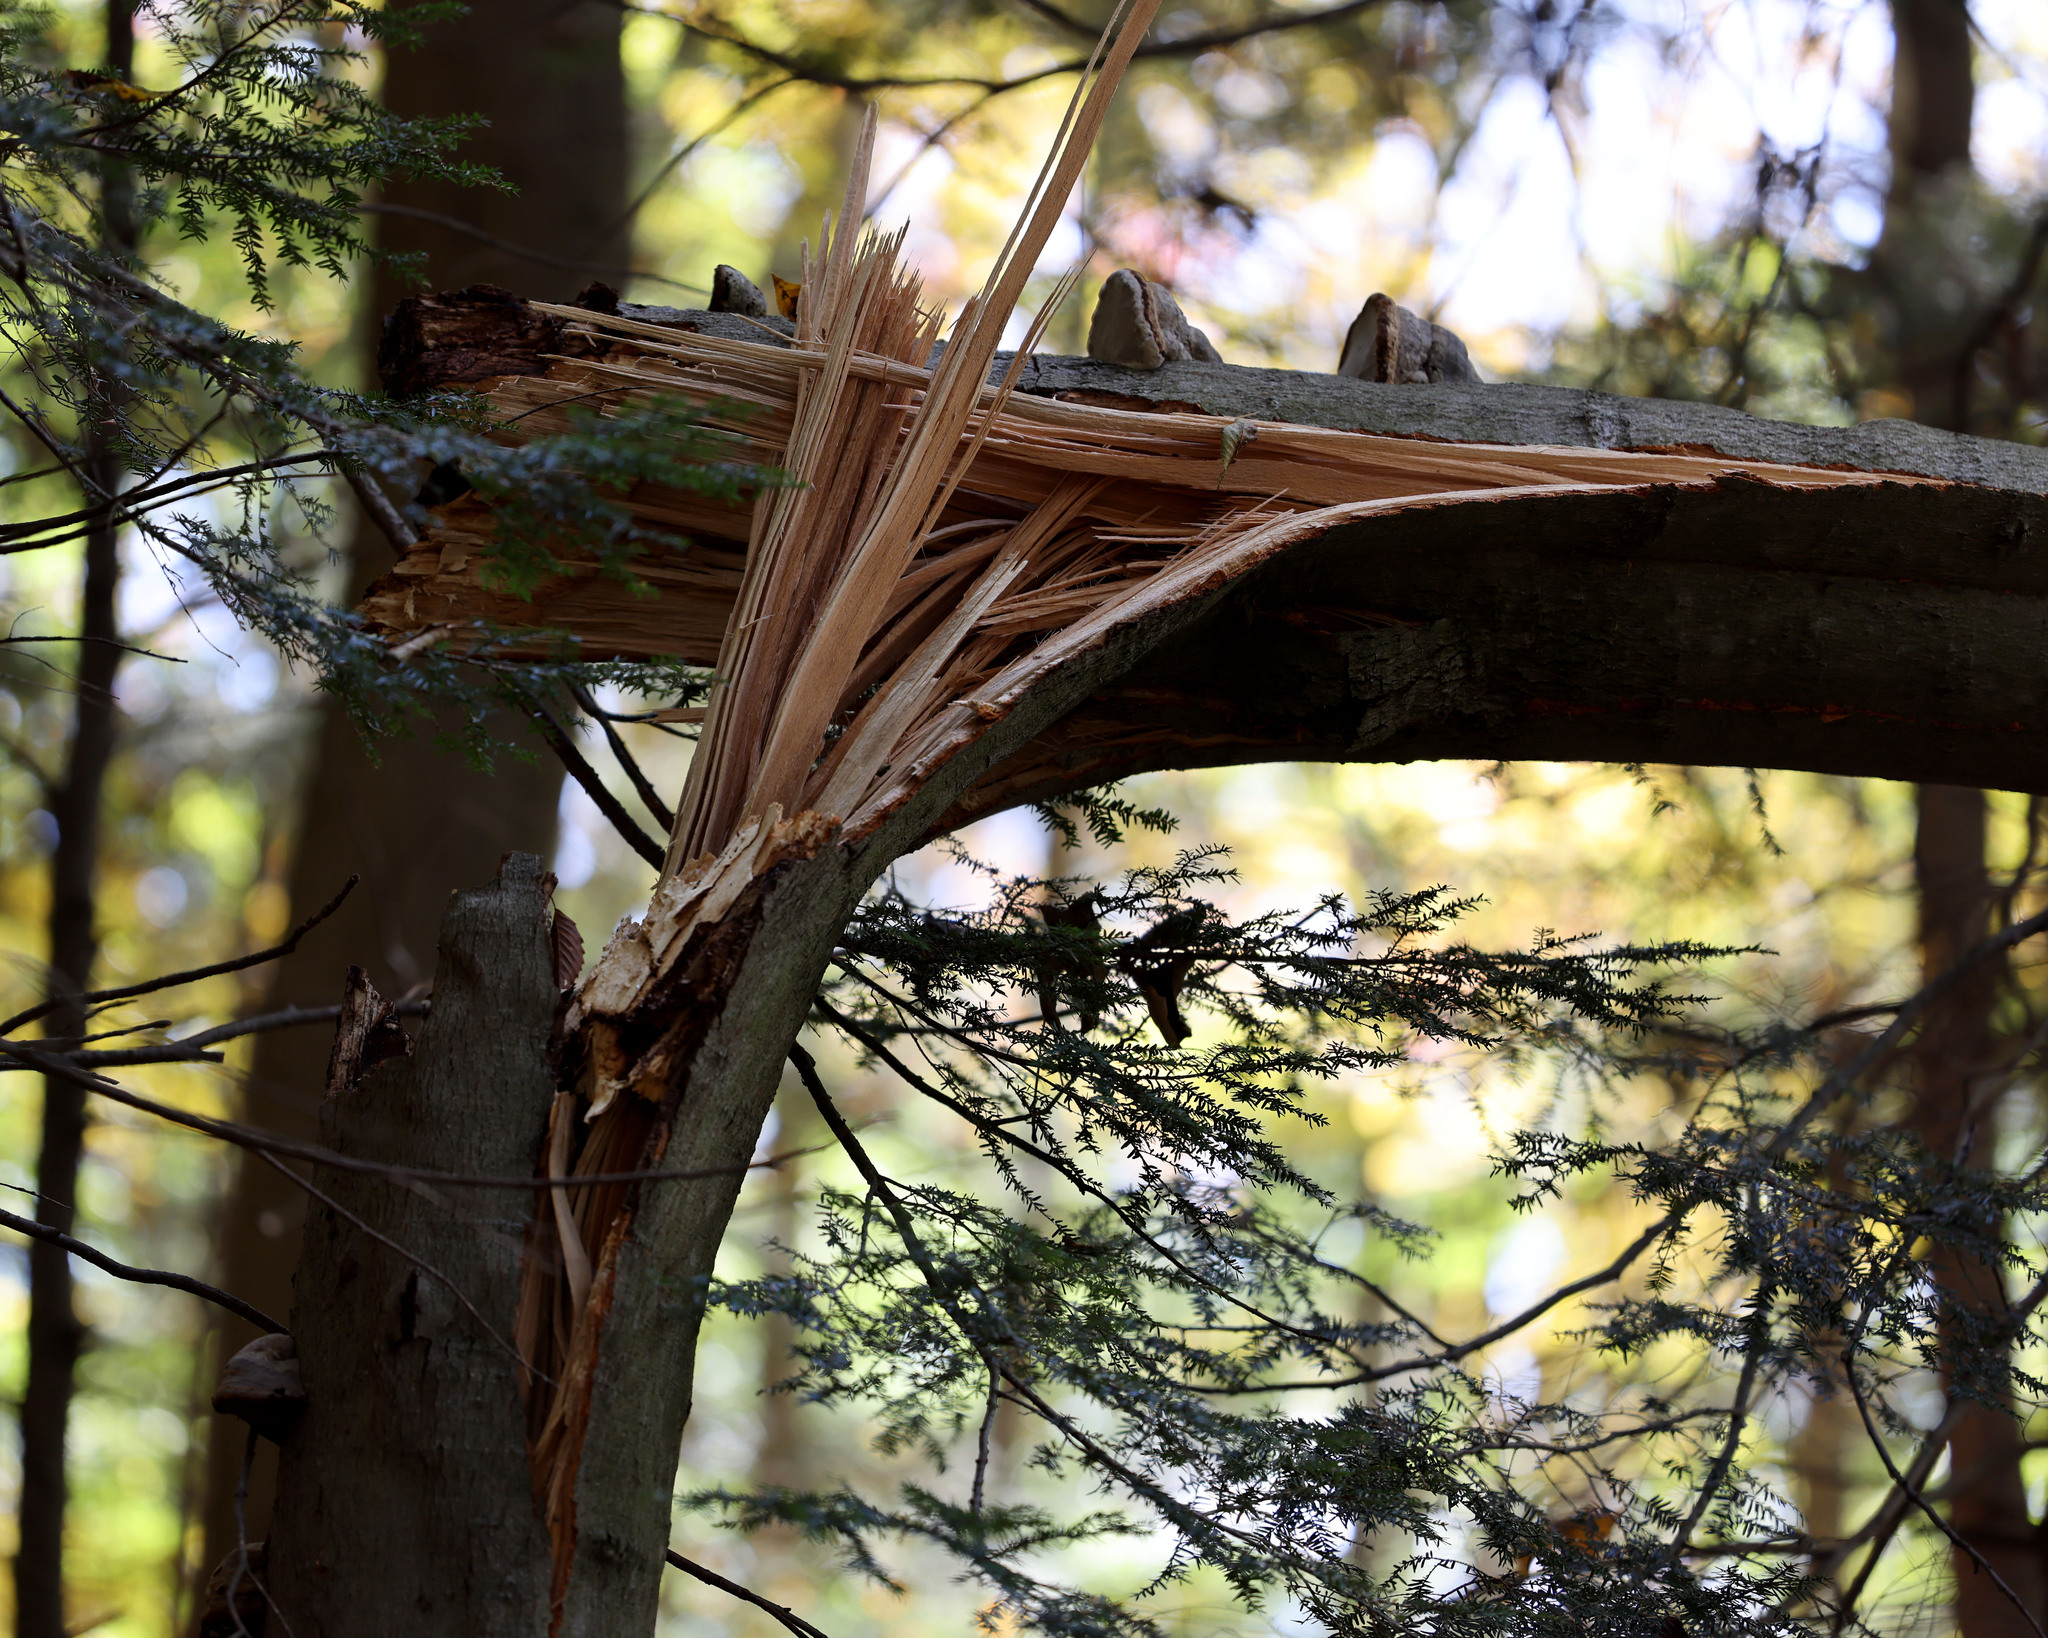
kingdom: Plantae
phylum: Tracheophyta
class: Magnoliopsida
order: Fagales
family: Fagaceae
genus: Fagus
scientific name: Fagus grandifolia
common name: American beech
